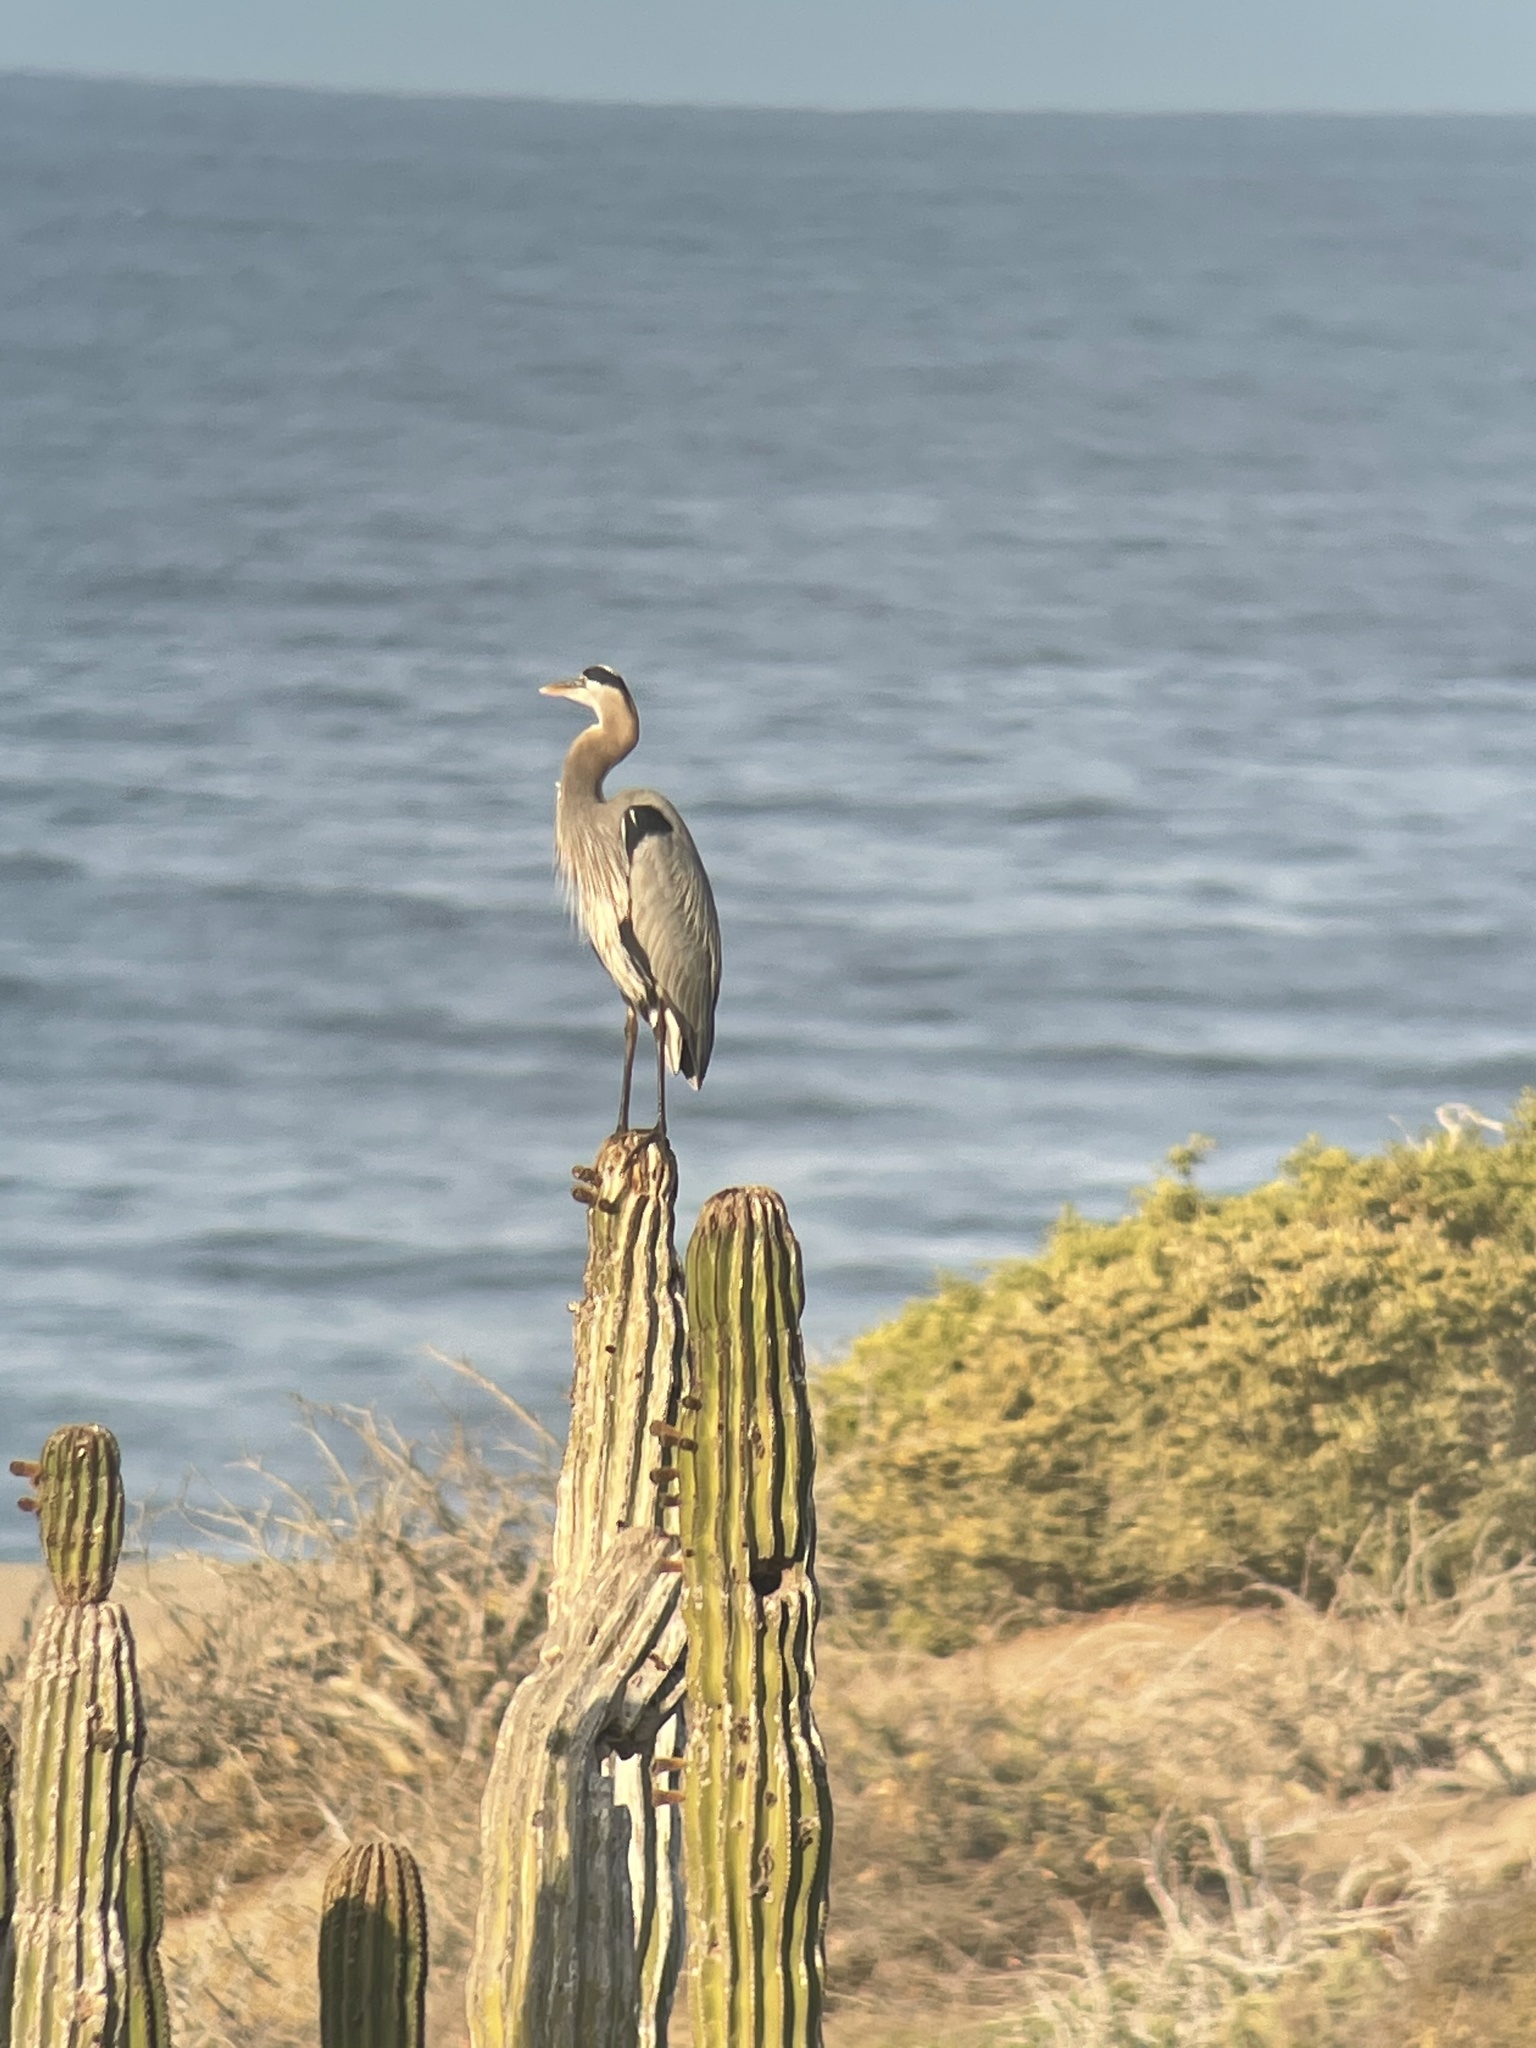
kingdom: Animalia
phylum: Chordata
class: Aves
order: Pelecaniformes
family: Ardeidae
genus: Ardea
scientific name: Ardea herodias
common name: Great blue heron
